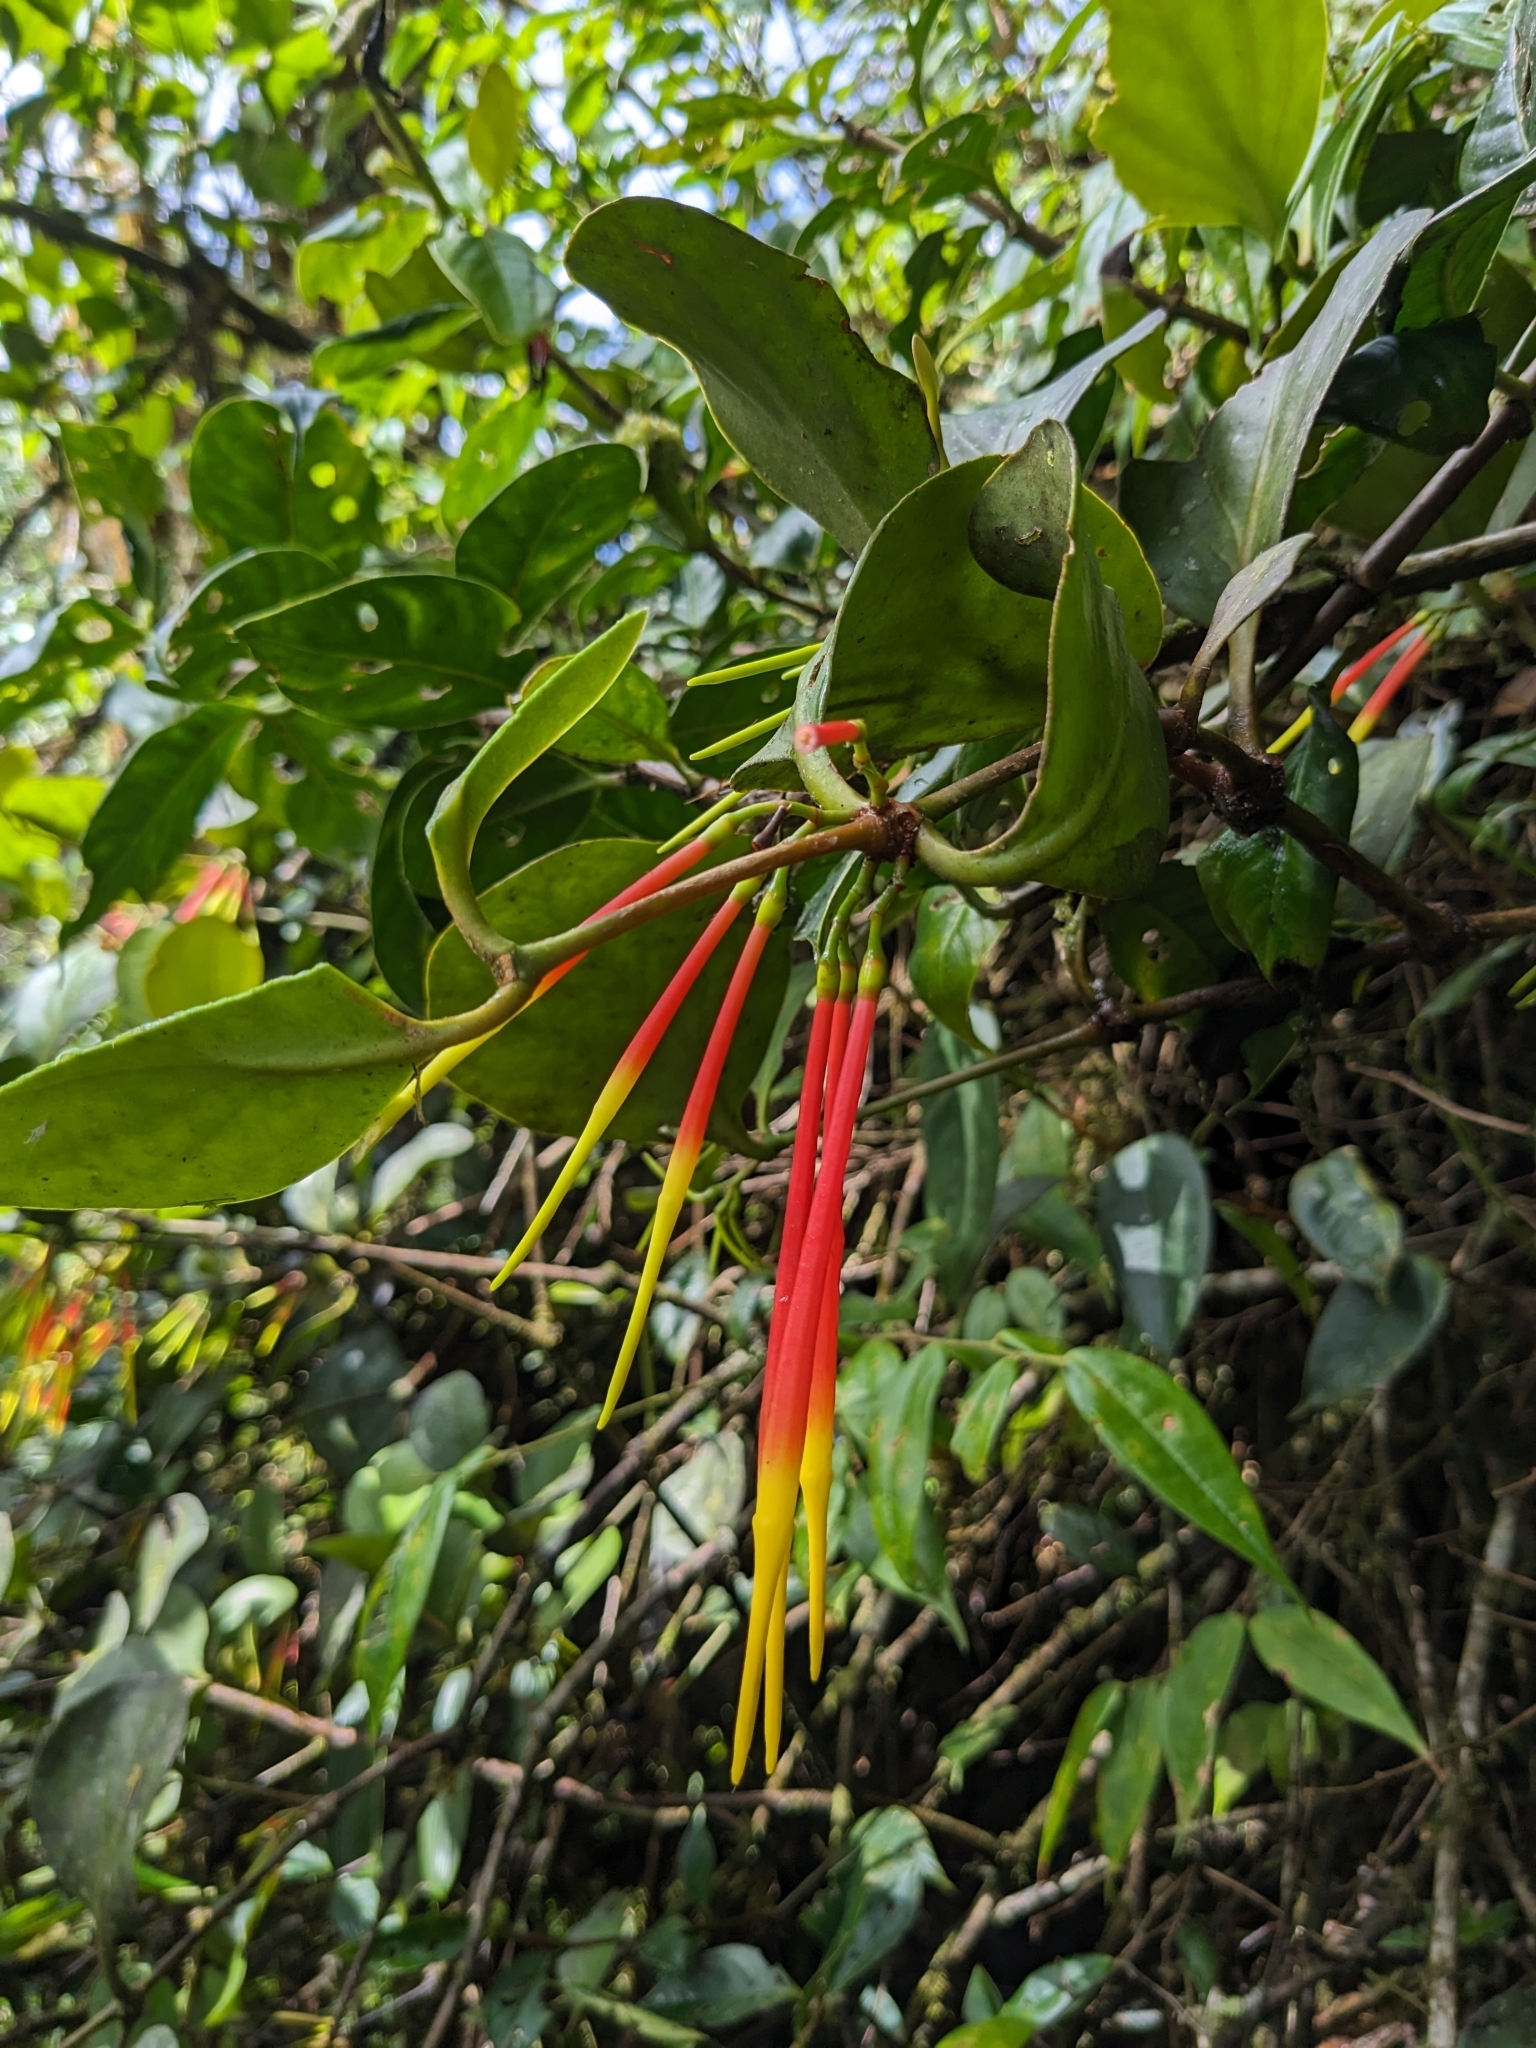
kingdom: Plantae
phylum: Tracheophyta
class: Magnoliopsida
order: Santalales
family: Loranthaceae
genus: Aetanthus
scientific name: Aetanthus nodosus
